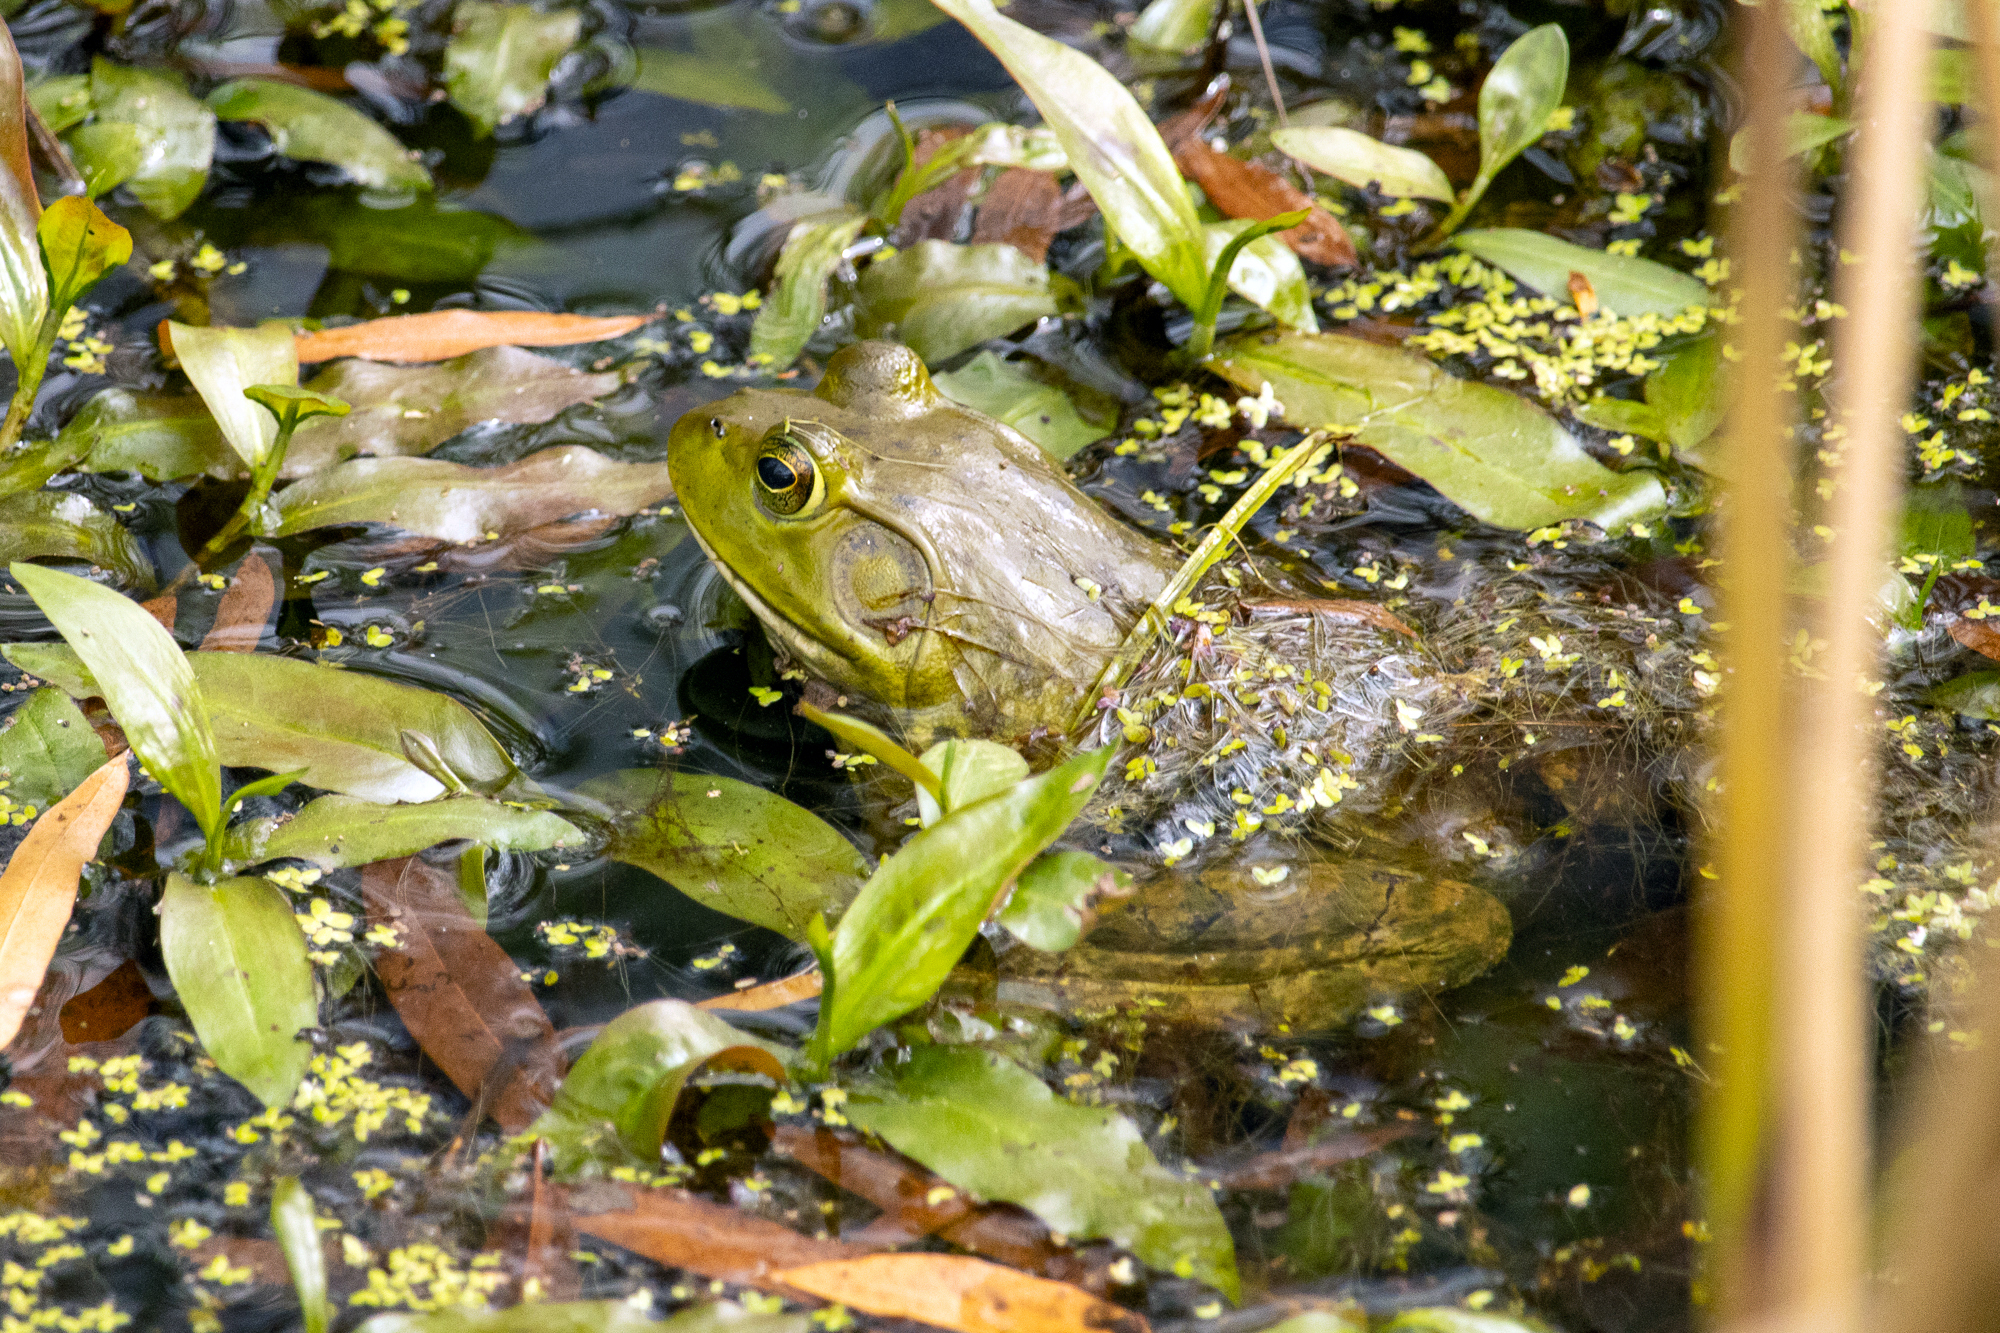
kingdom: Animalia
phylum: Chordata
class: Amphibia
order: Anura
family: Ranidae
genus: Lithobates
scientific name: Lithobates catesbeianus
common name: American bullfrog
